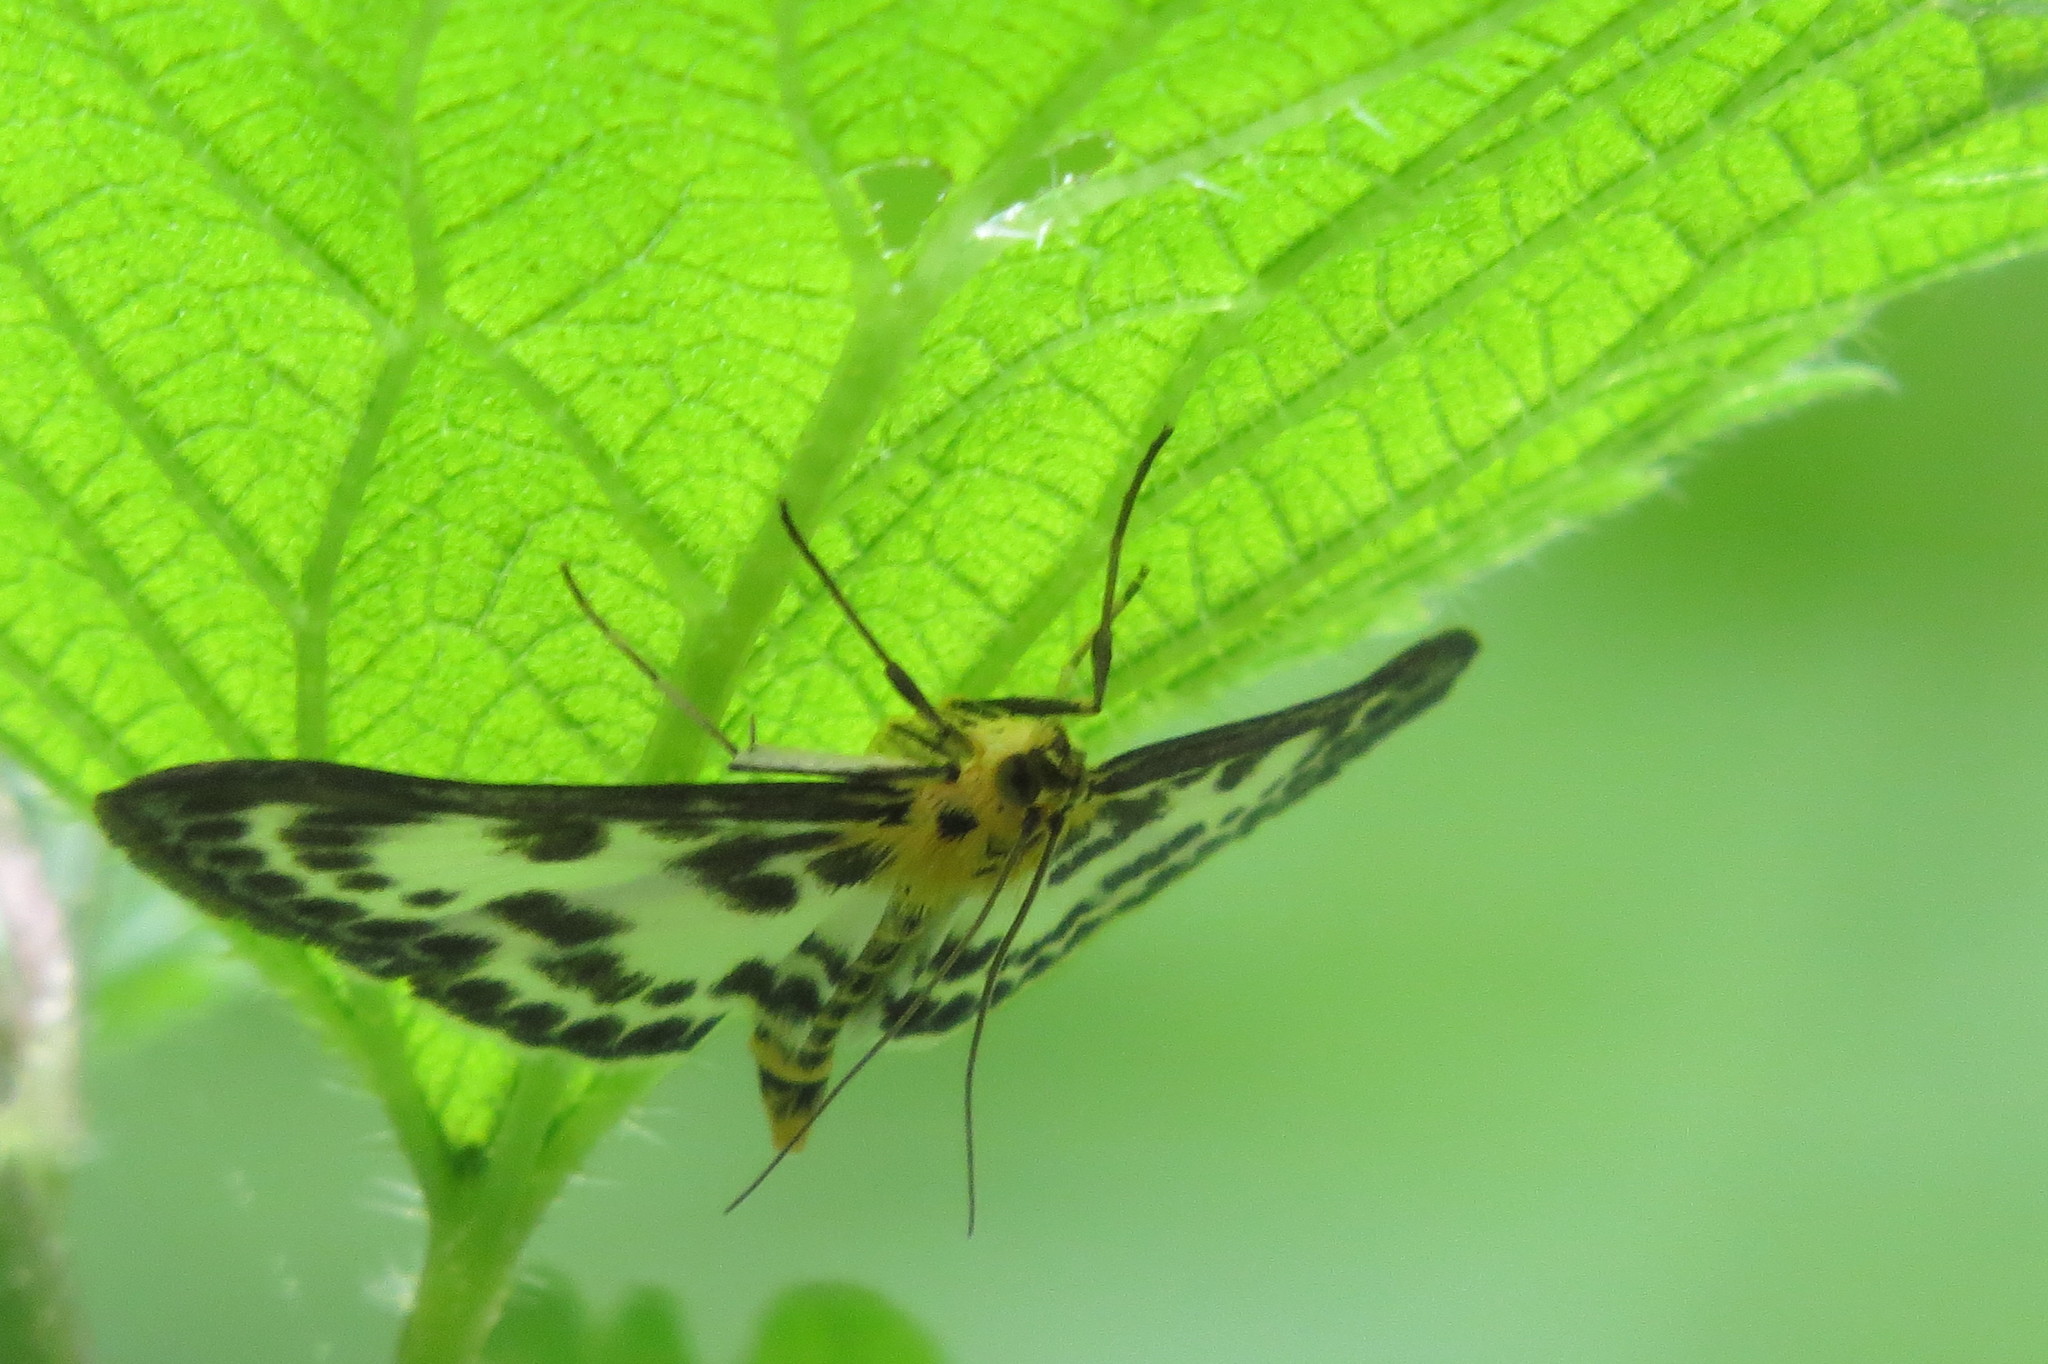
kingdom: Animalia
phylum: Arthropoda
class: Insecta
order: Lepidoptera
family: Crambidae
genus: Anania
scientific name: Anania hortulata
